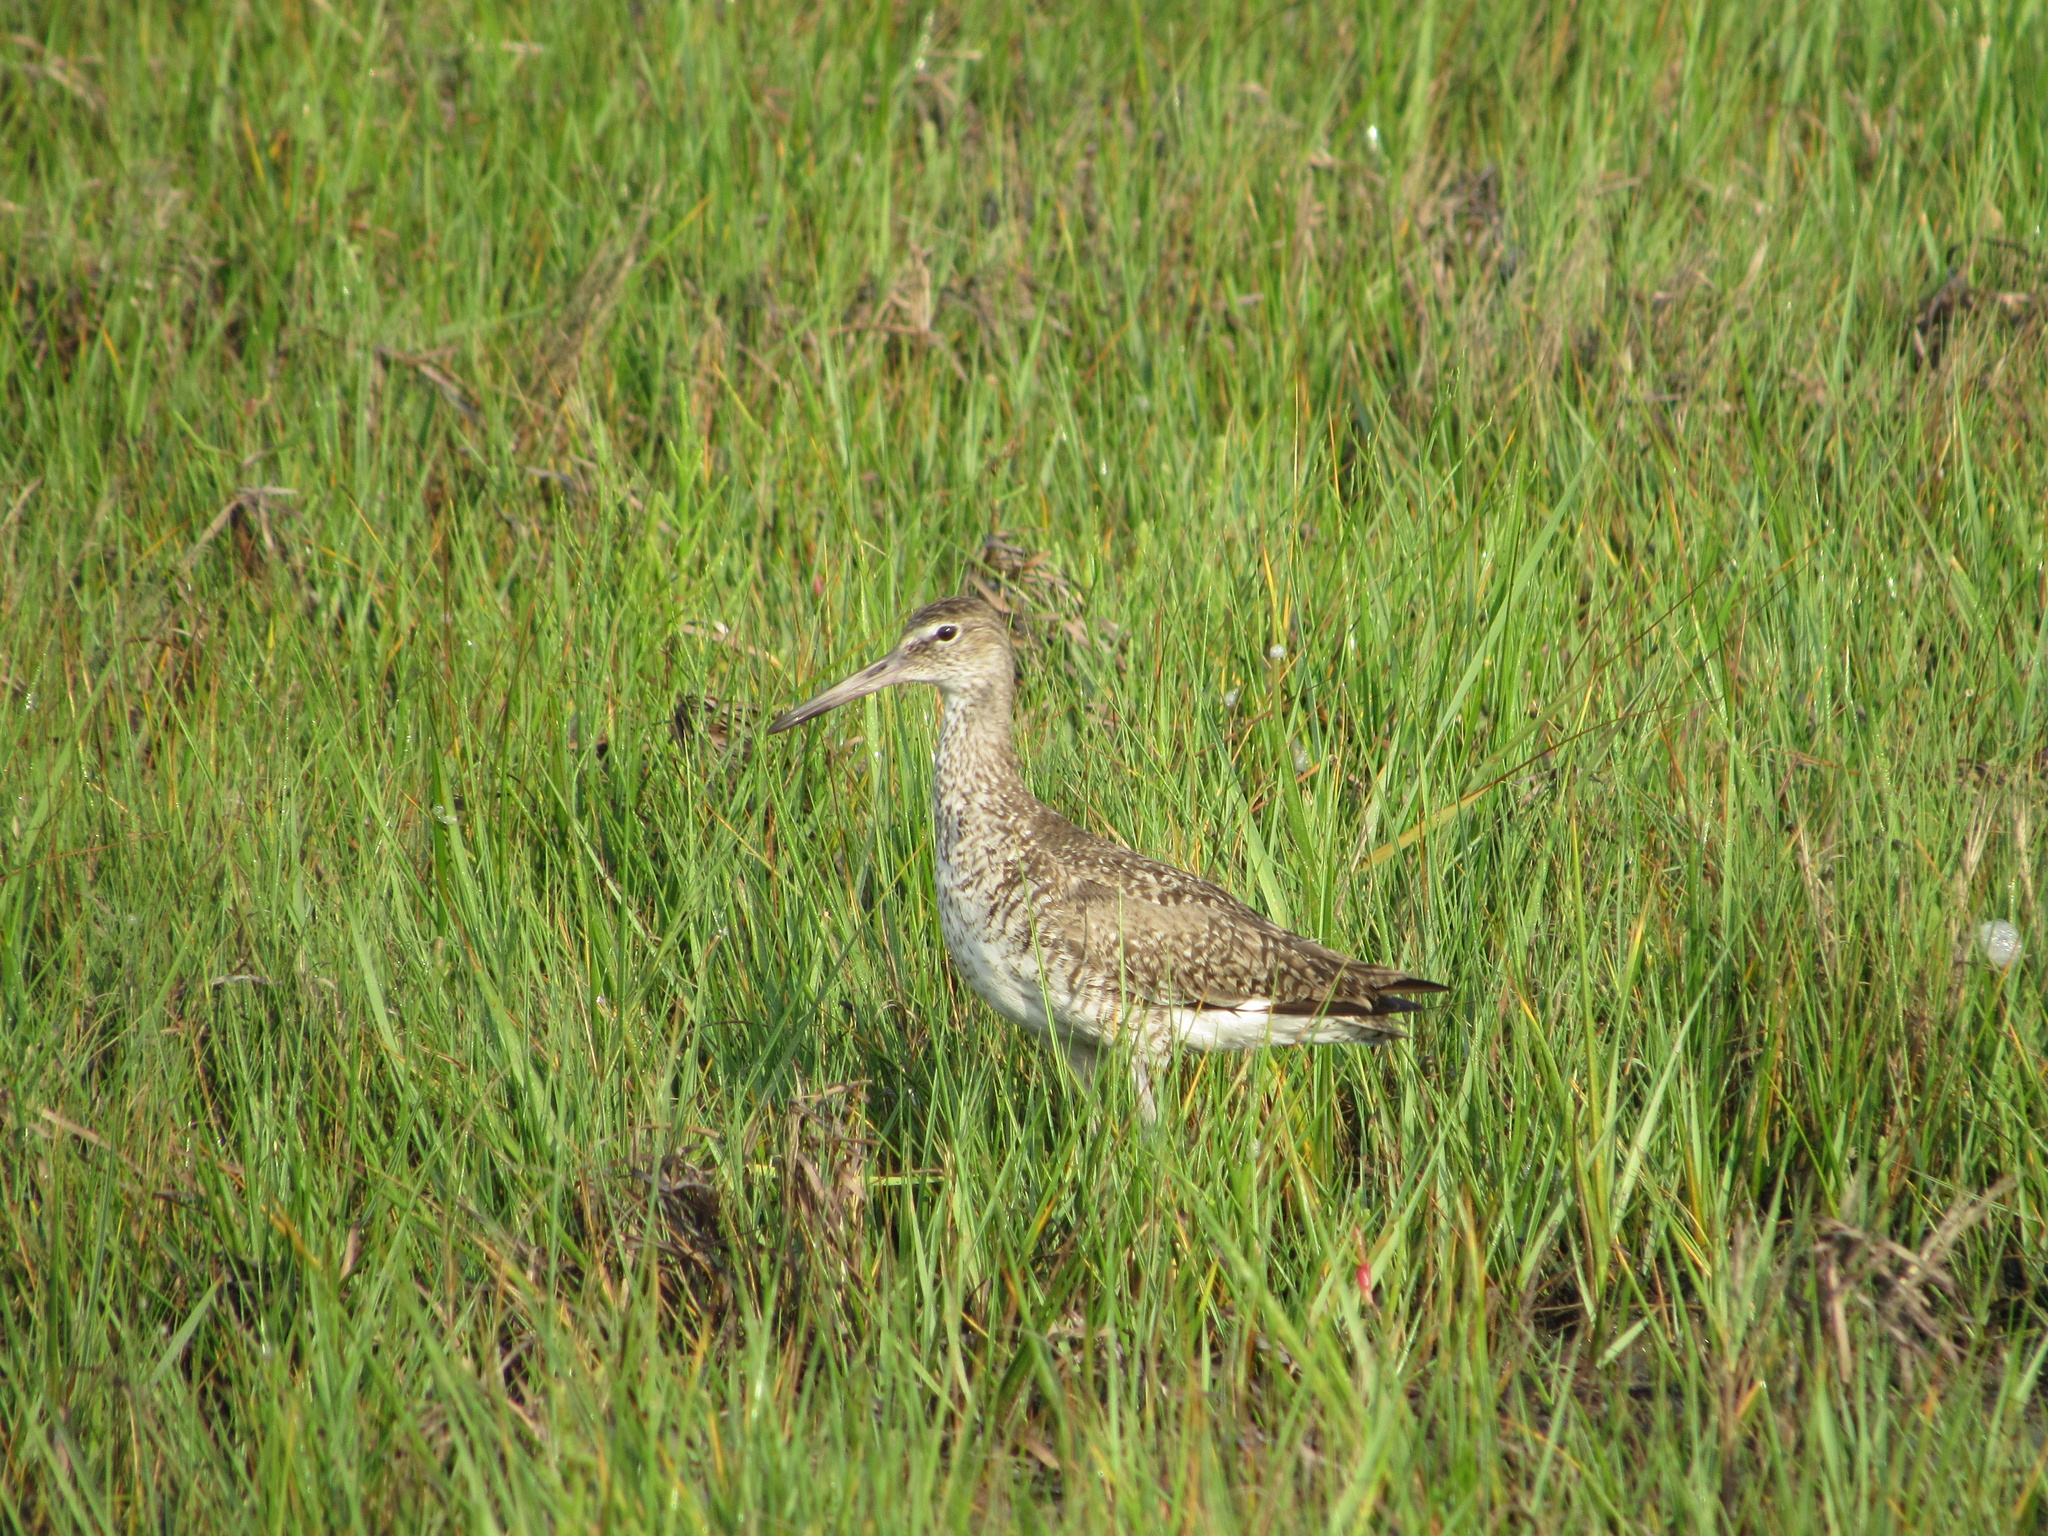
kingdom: Animalia
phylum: Chordata
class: Aves
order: Charadriiformes
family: Scolopacidae
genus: Tringa
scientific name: Tringa semipalmata
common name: Willet
